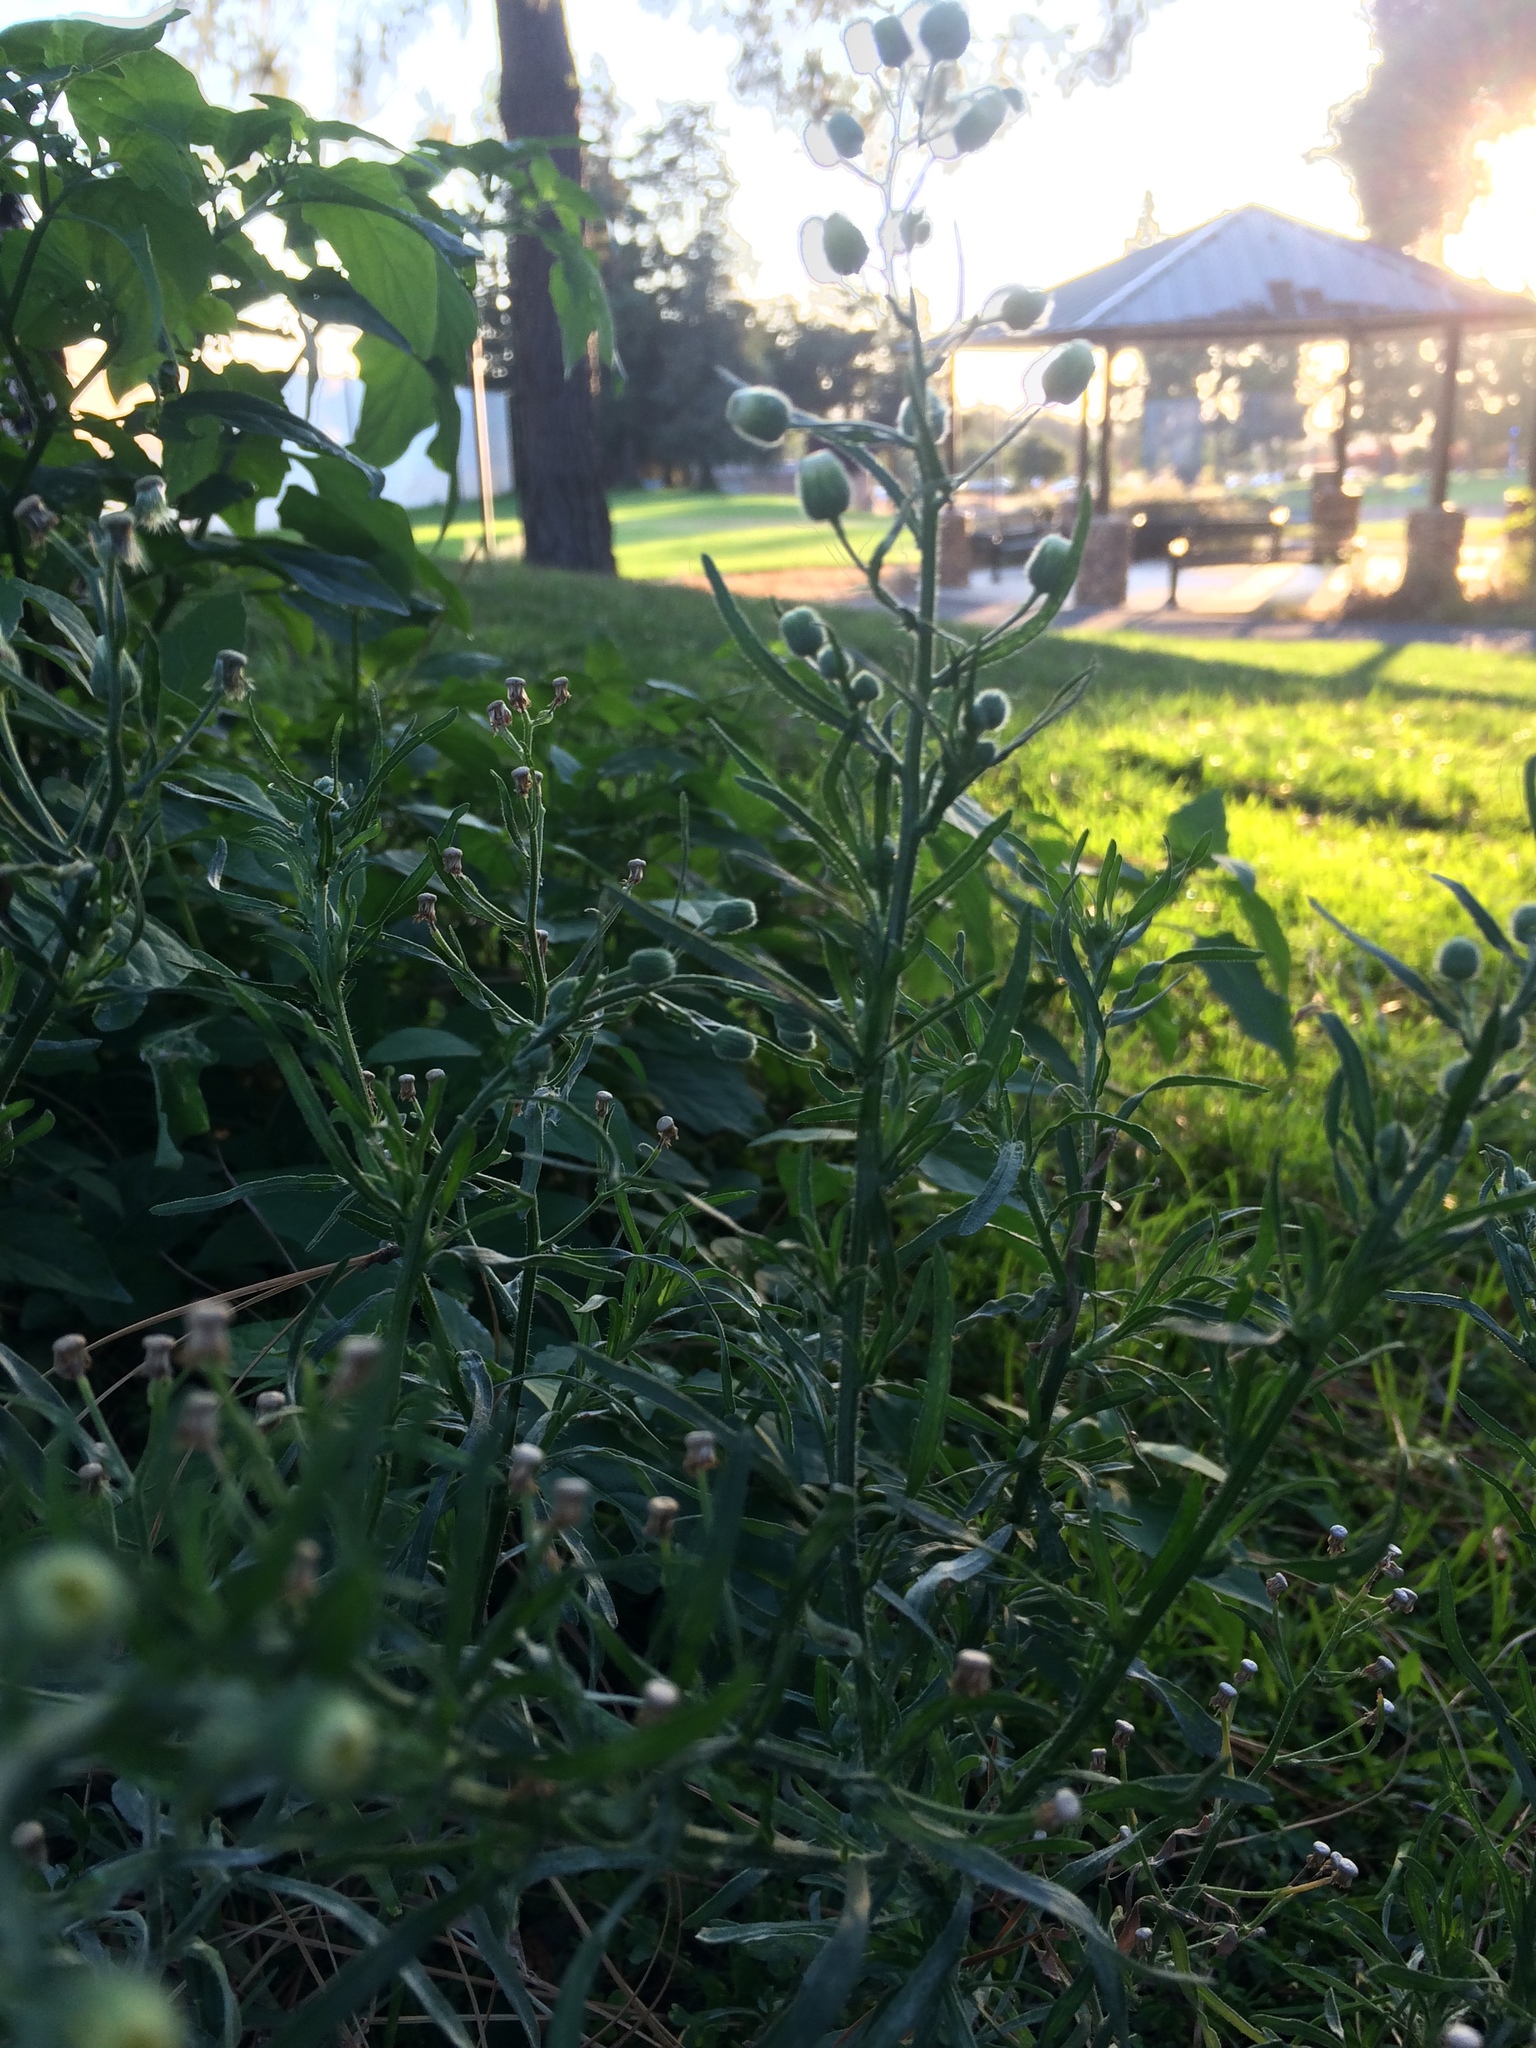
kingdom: Plantae
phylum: Tracheophyta
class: Magnoliopsida
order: Asterales
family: Asteraceae
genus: Erigeron
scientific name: Erigeron bonariensis
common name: Argentine fleabane
